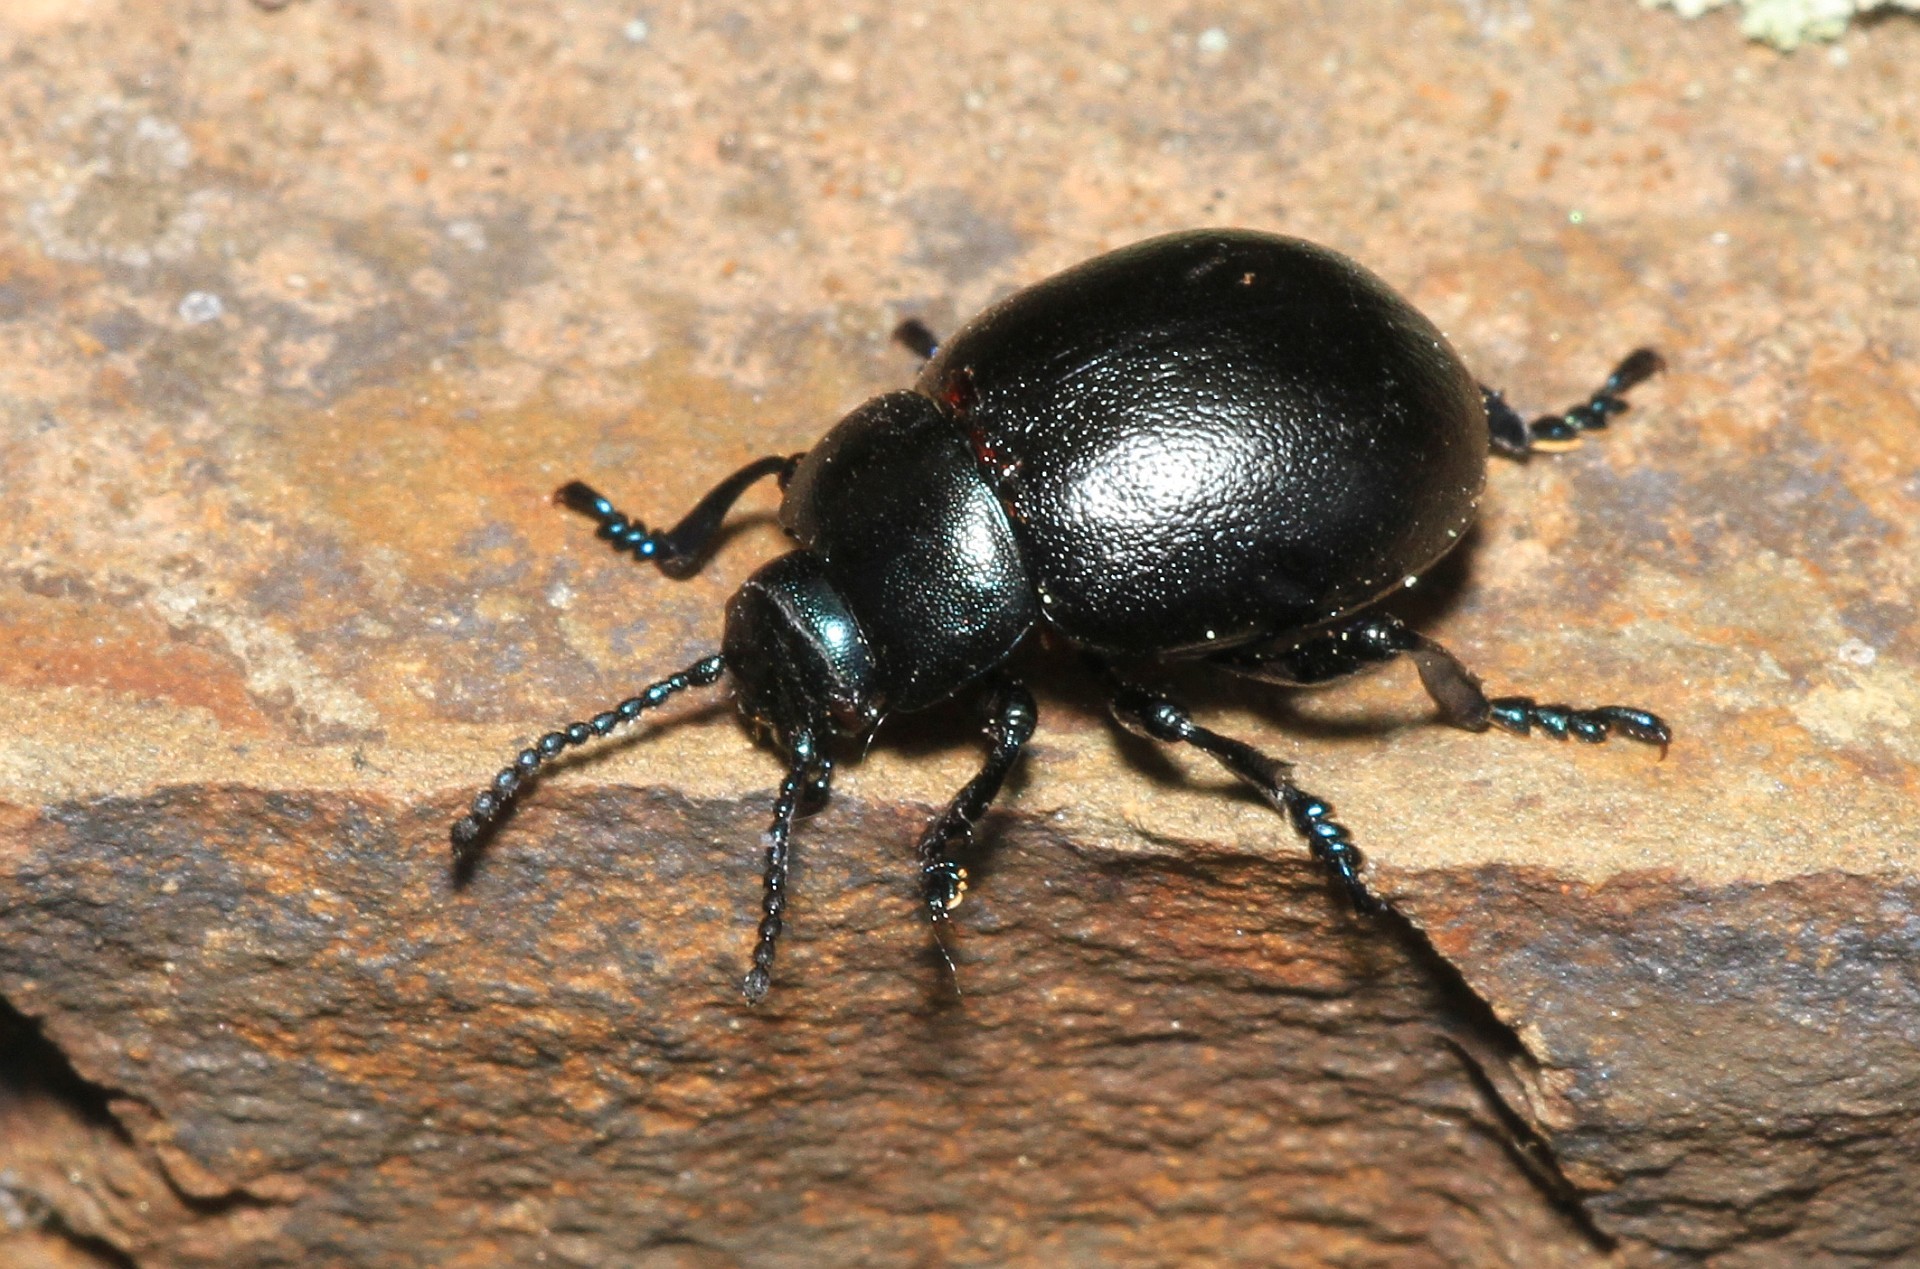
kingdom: Animalia
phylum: Arthropoda
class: Insecta
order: Coleoptera
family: Chrysomelidae
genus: Timarcha
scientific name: Timarcha goettingensis
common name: Small bloody-nosed beetle
